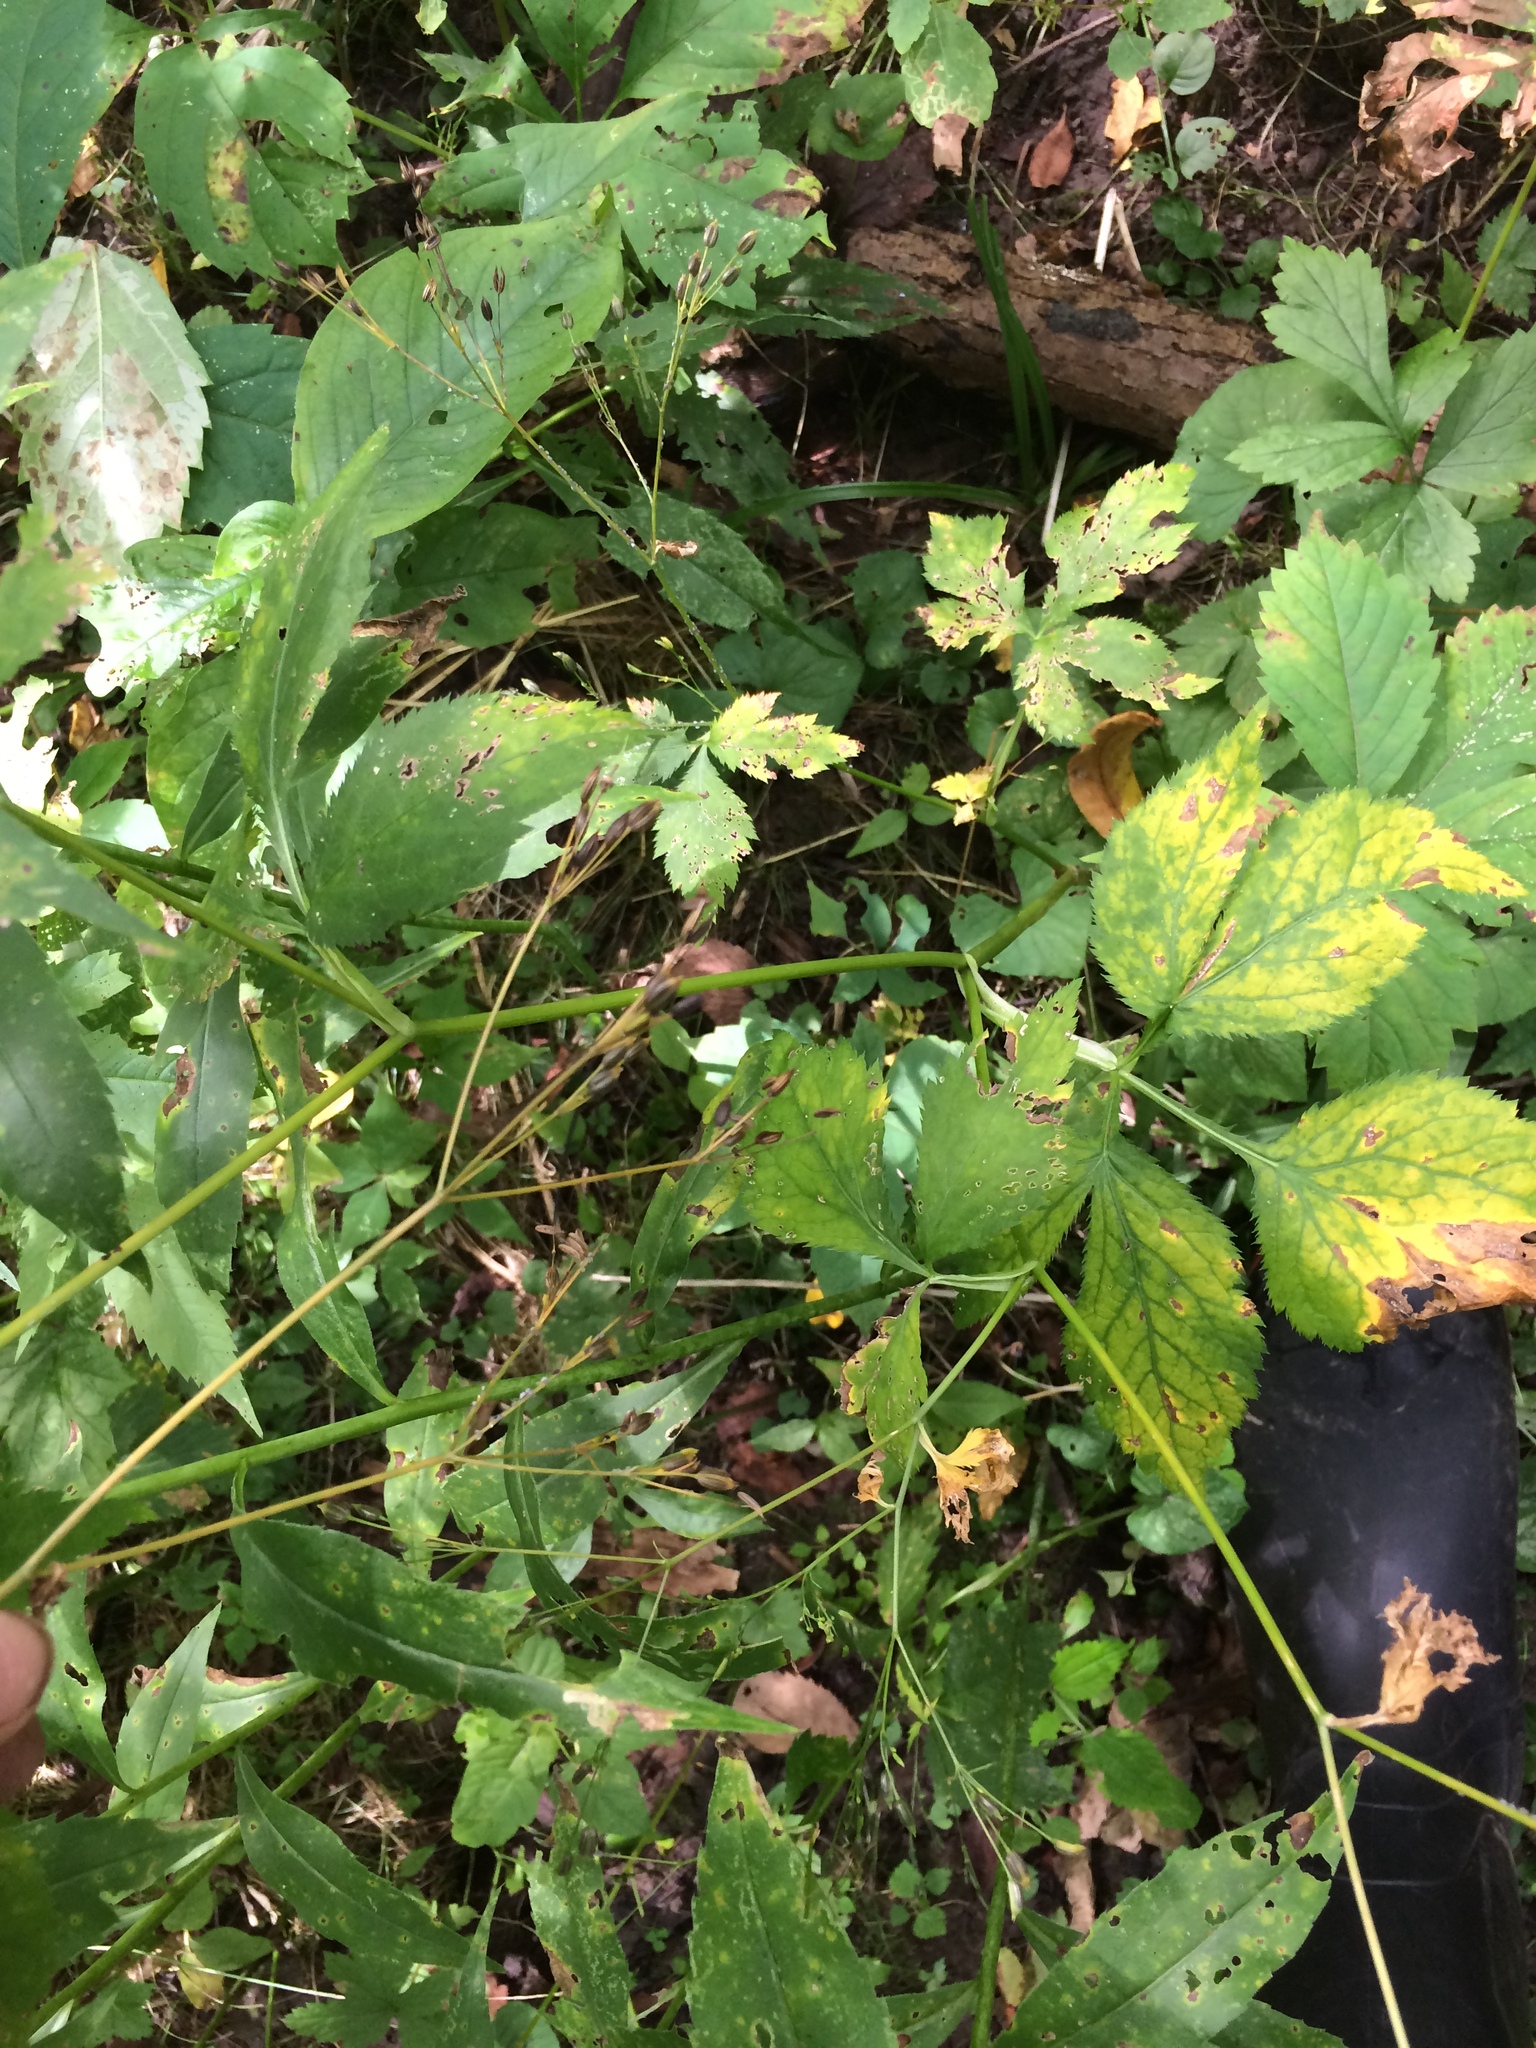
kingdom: Plantae
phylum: Tracheophyta
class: Magnoliopsida
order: Apiales
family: Apiaceae
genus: Cryptotaenia
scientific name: Cryptotaenia canadensis
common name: Honewort
